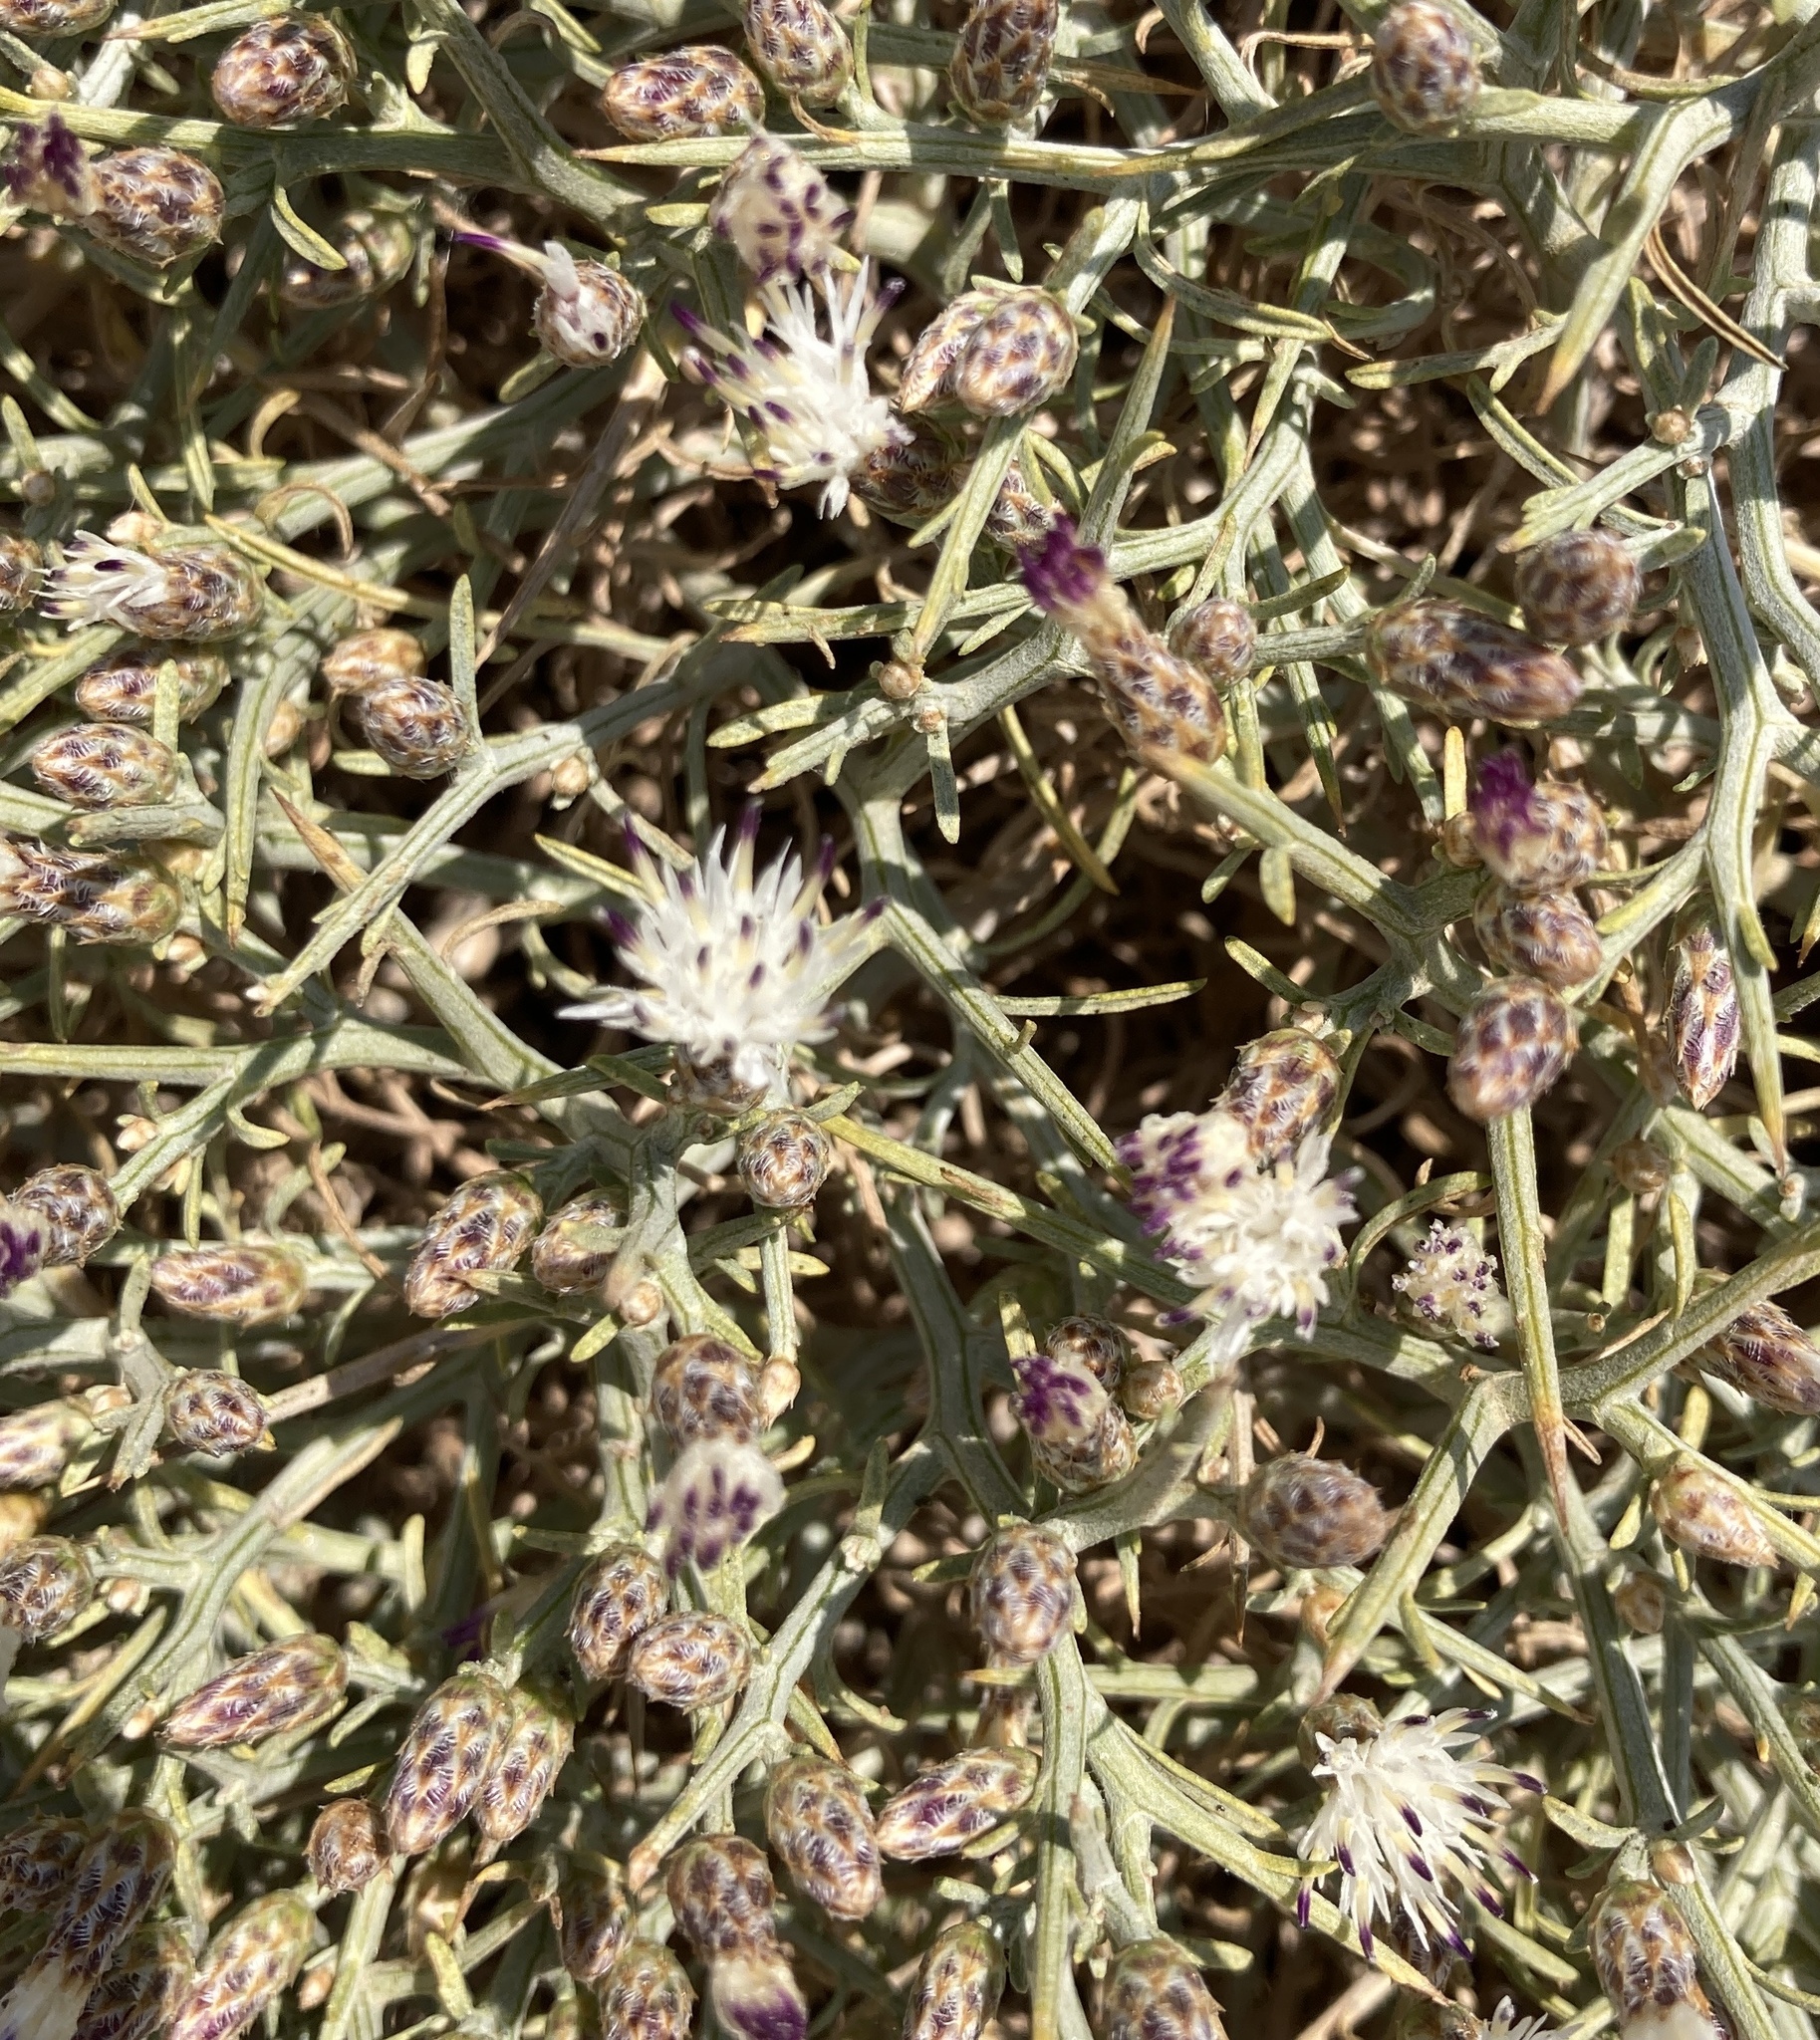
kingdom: Plantae
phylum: Tracheophyta
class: Magnoliopsida
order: Asterales
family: Asteraceae
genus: Centaurea
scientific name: Centaurea spinosa
